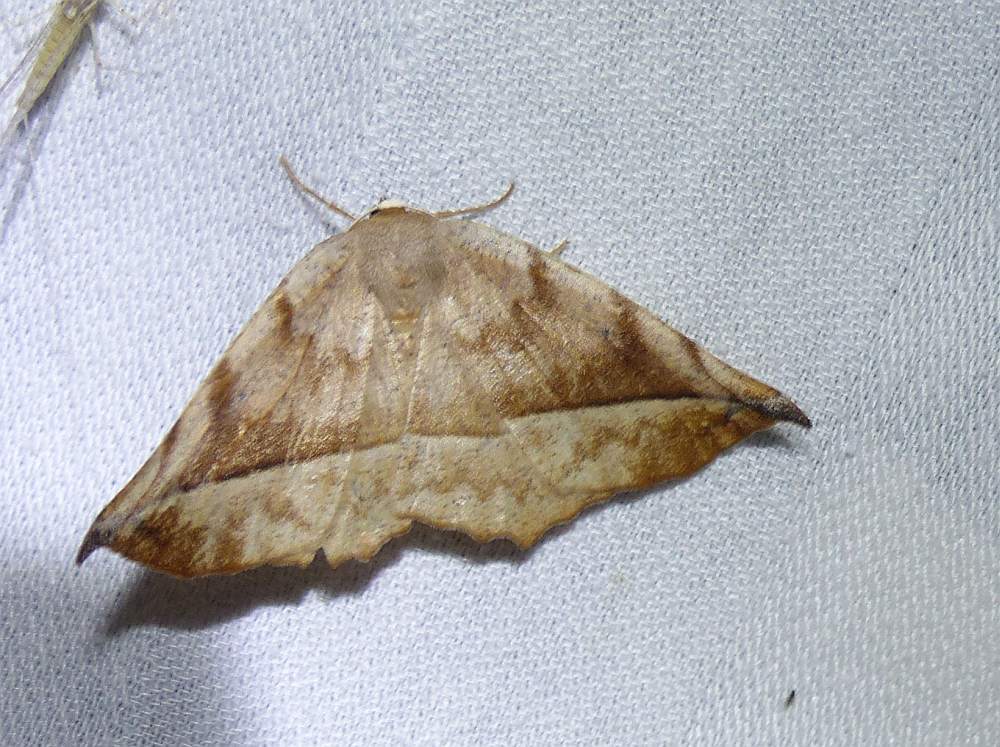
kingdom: Animalia
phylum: Arthropoda
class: Insecta
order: Lepidoptera
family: Geometridae
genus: Eutrapela
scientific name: Eutrapela clemataria
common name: Curved-toothed geometer
